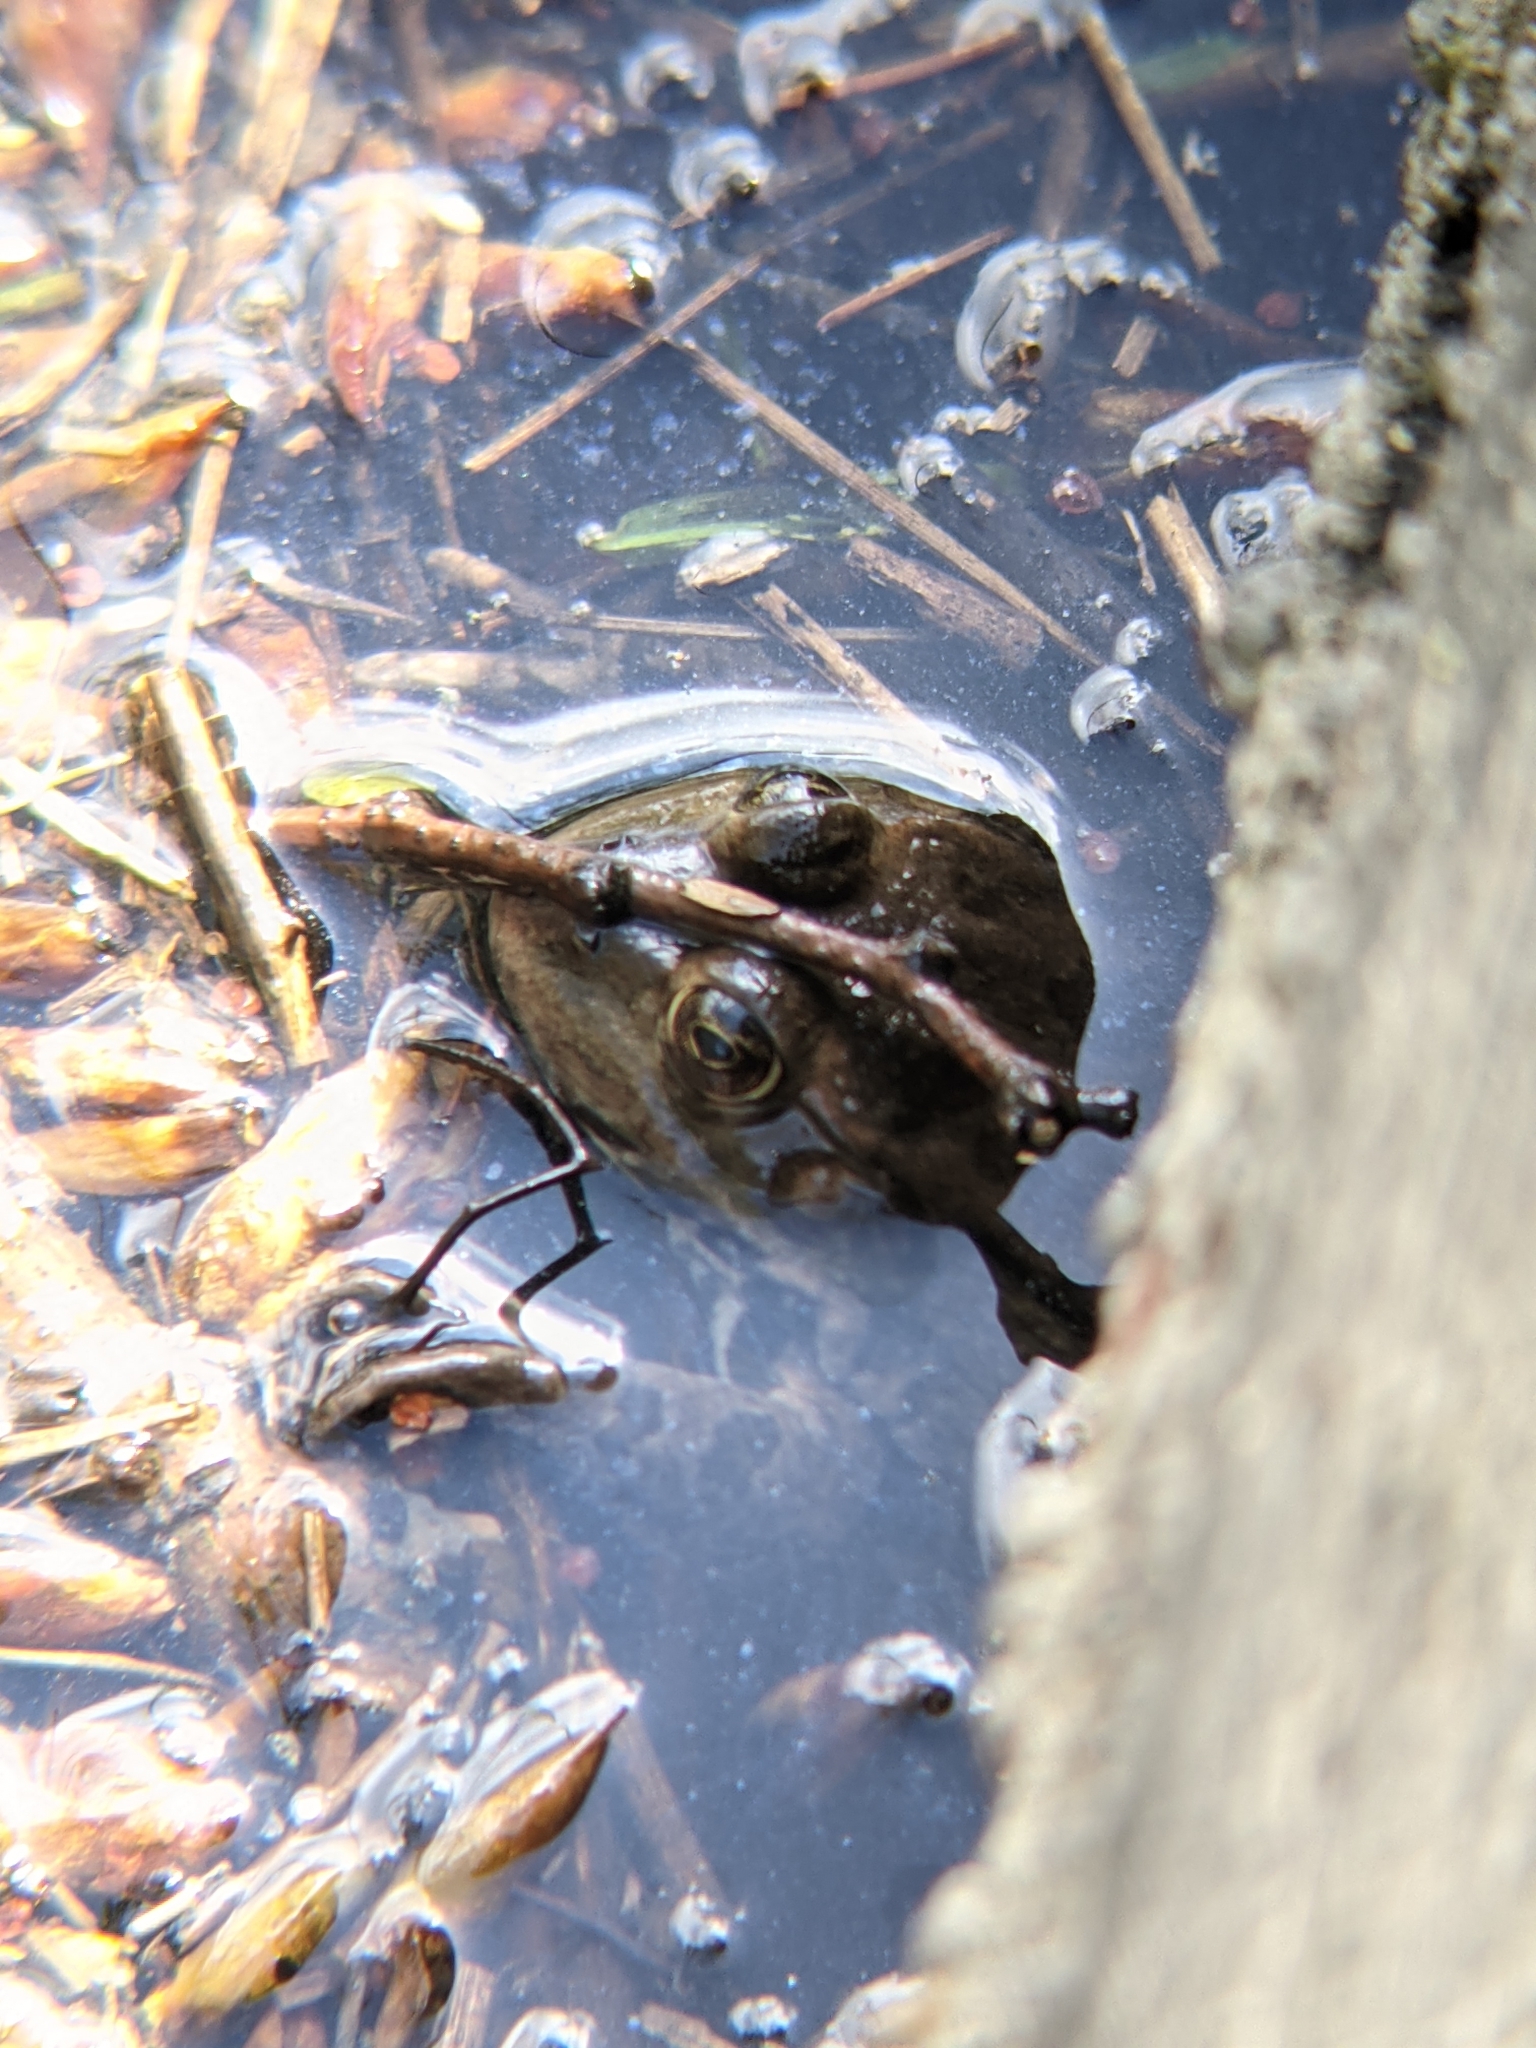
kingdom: Animalia
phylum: Chordata
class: Amphibia
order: Anura
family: Ranidae
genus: Pelophylax
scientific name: Pelophylax
